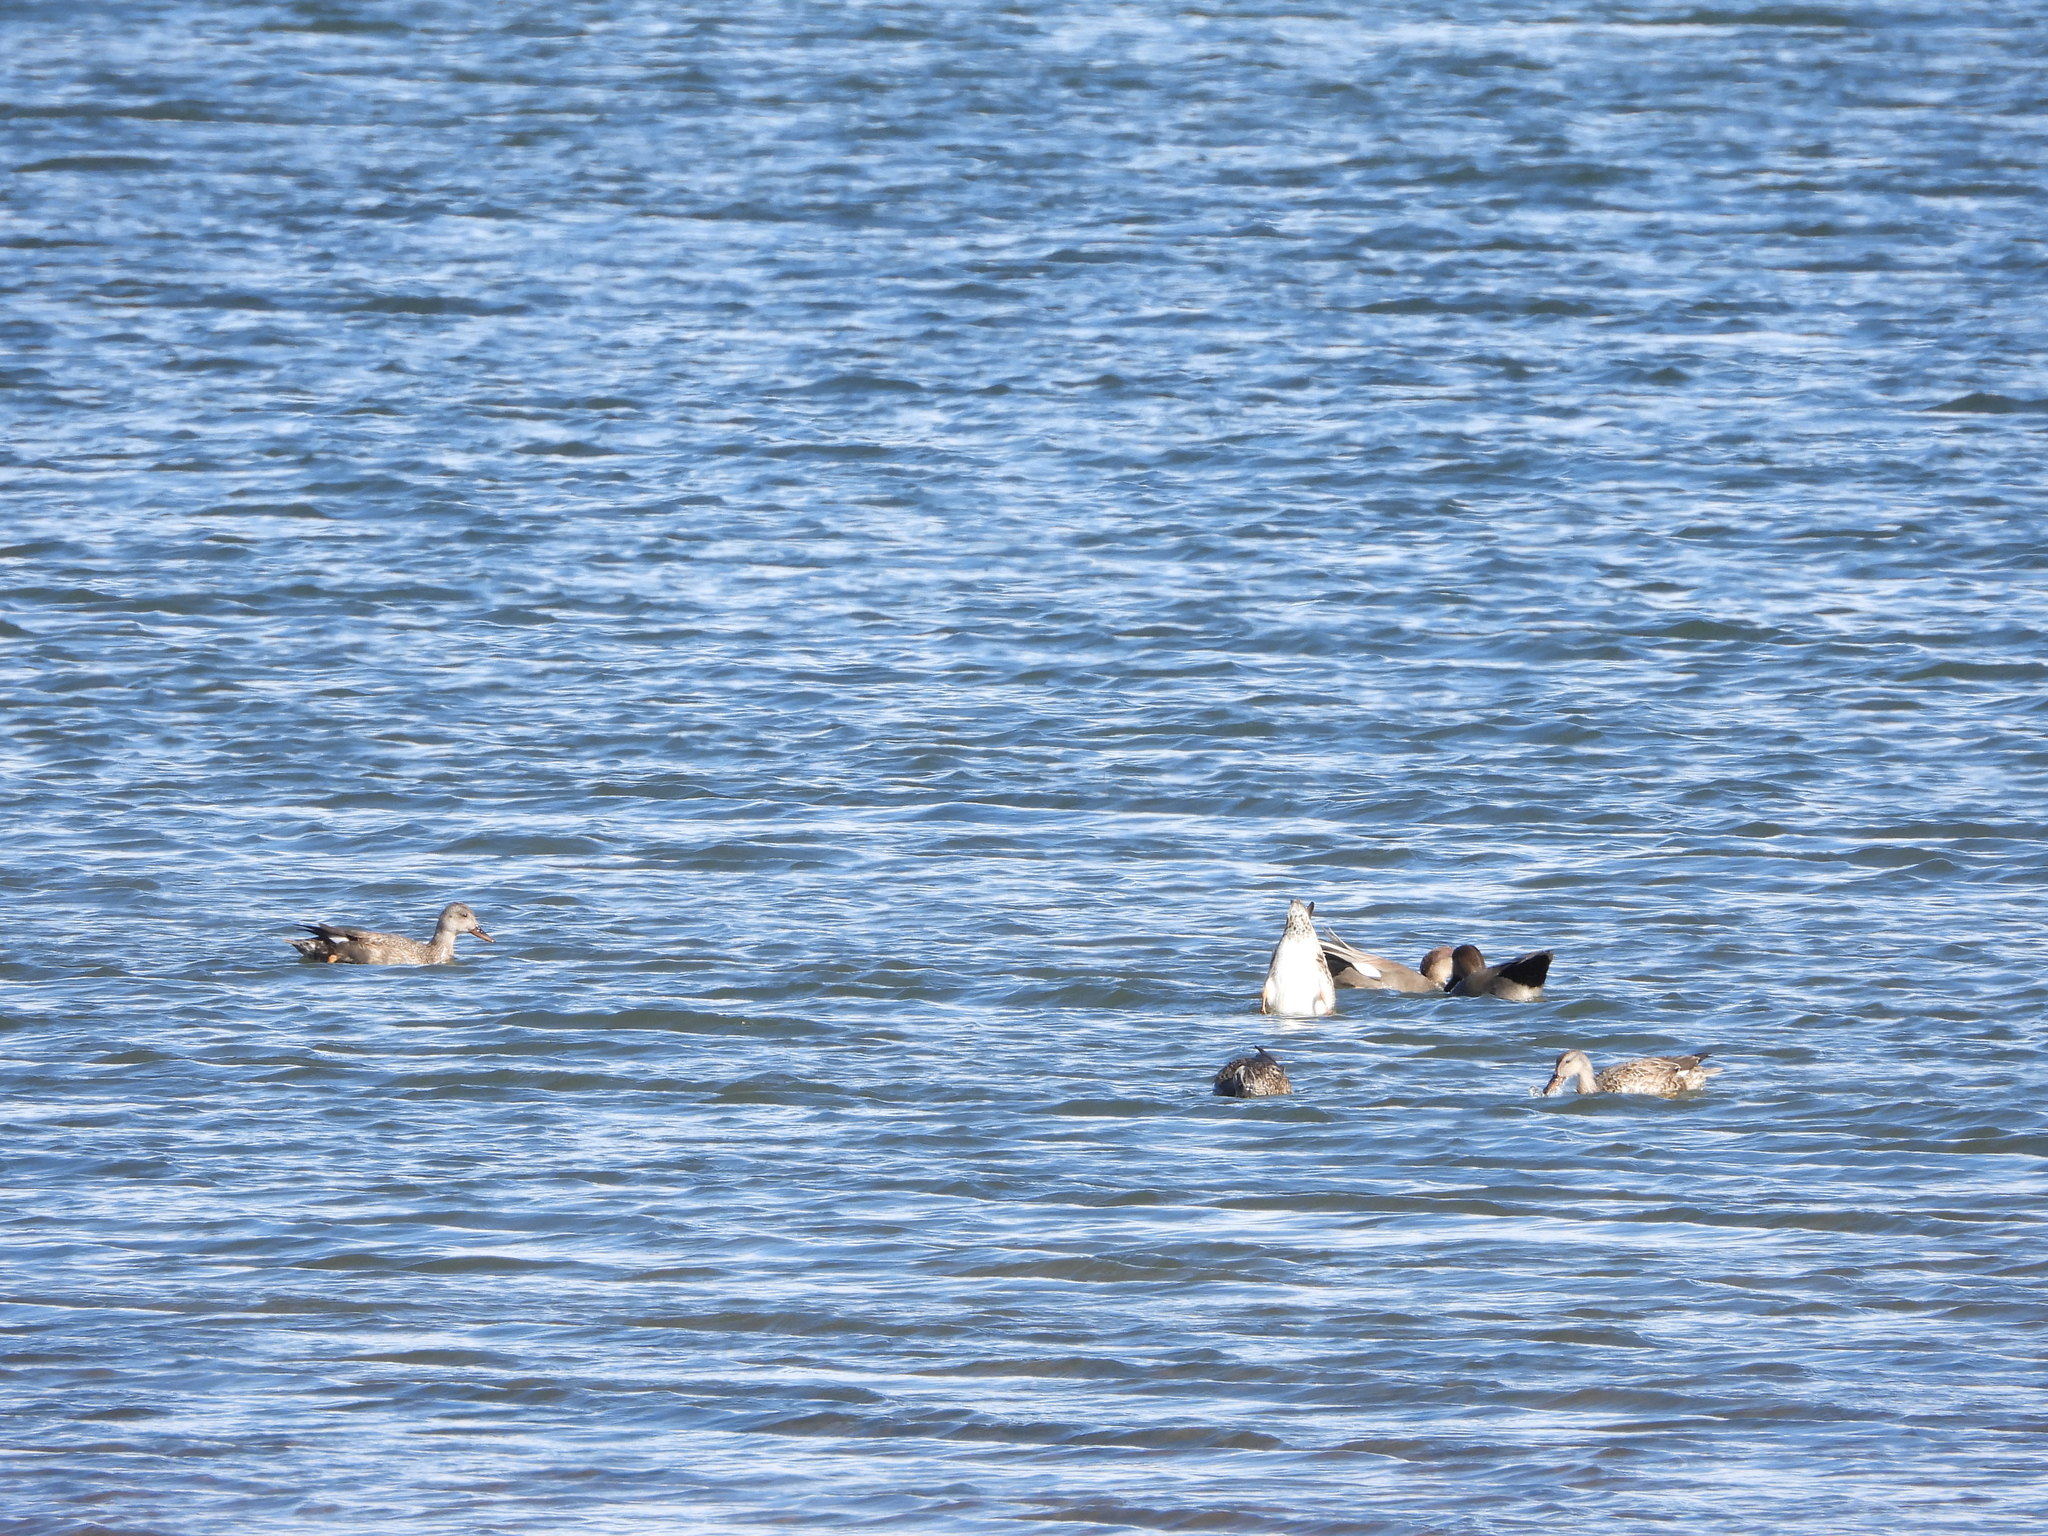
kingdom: Animalia
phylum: Chordata
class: Aves
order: Anseriformes
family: Anatidae
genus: Mareca
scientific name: Mareca strepera
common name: Gadwall
